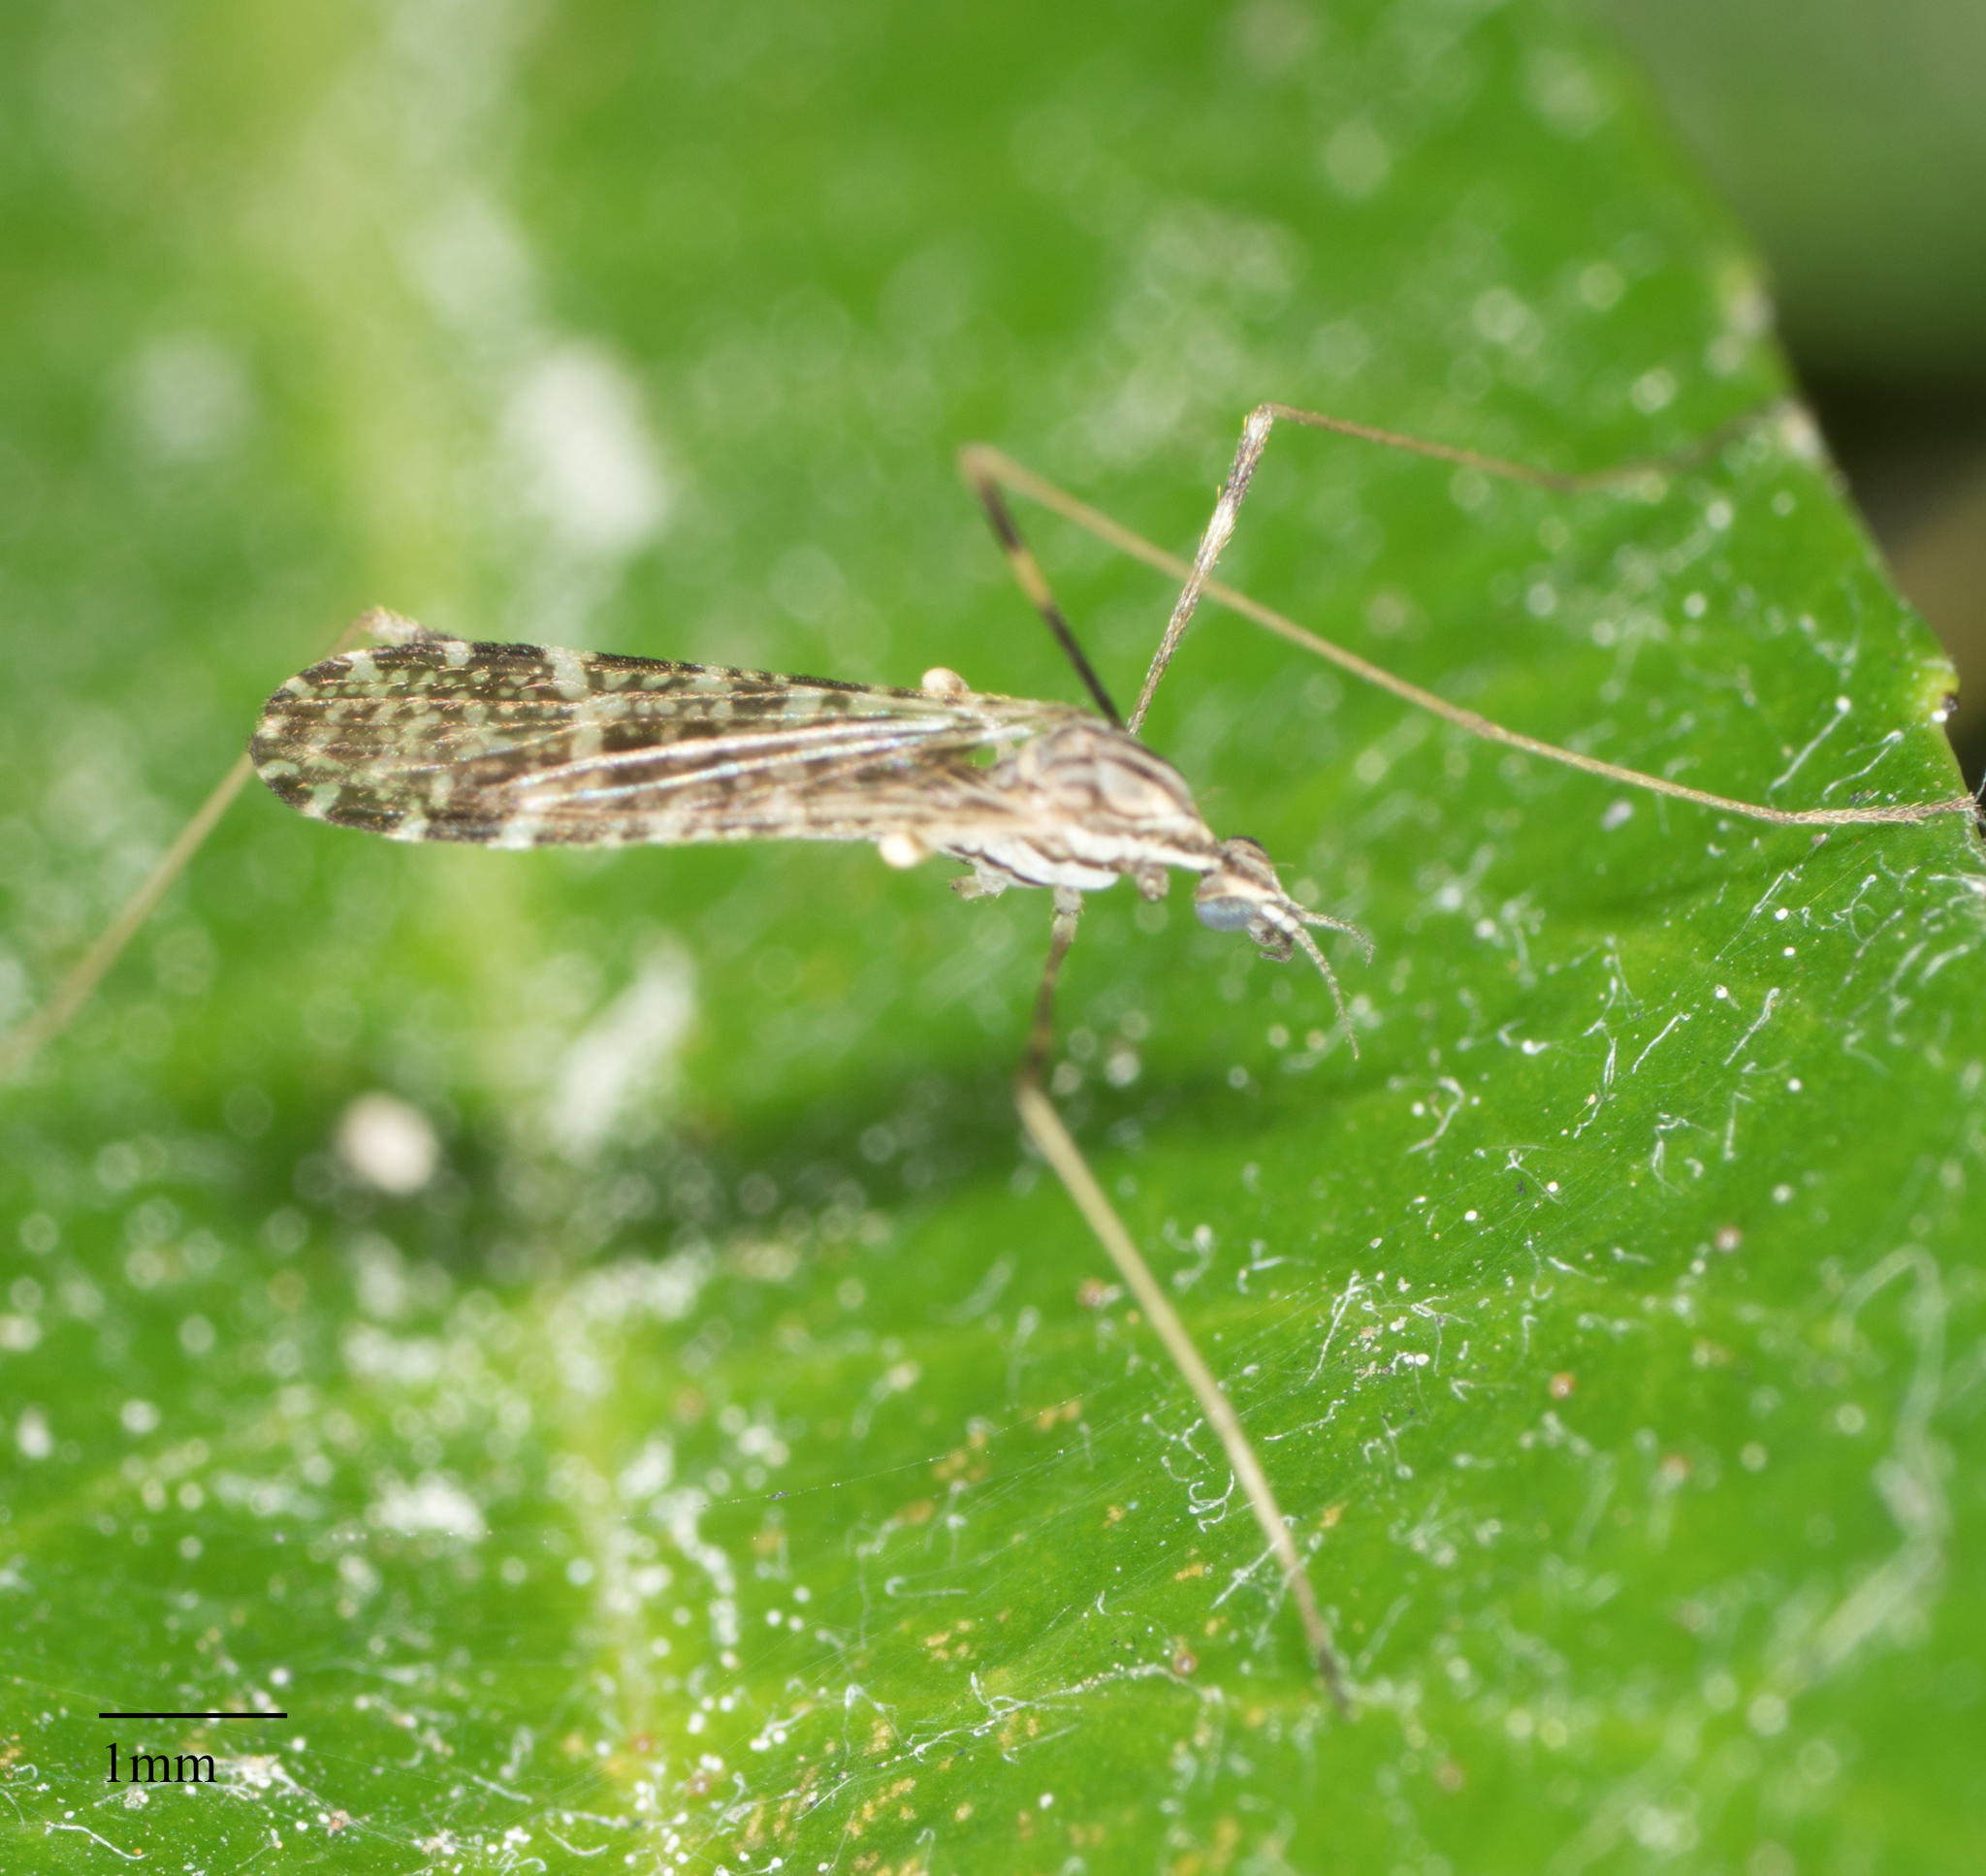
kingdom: Animalia
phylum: Arthropoda
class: Insecta
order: Diptera
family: Limoniidae
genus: Erioptera
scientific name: Erioptera distincta
